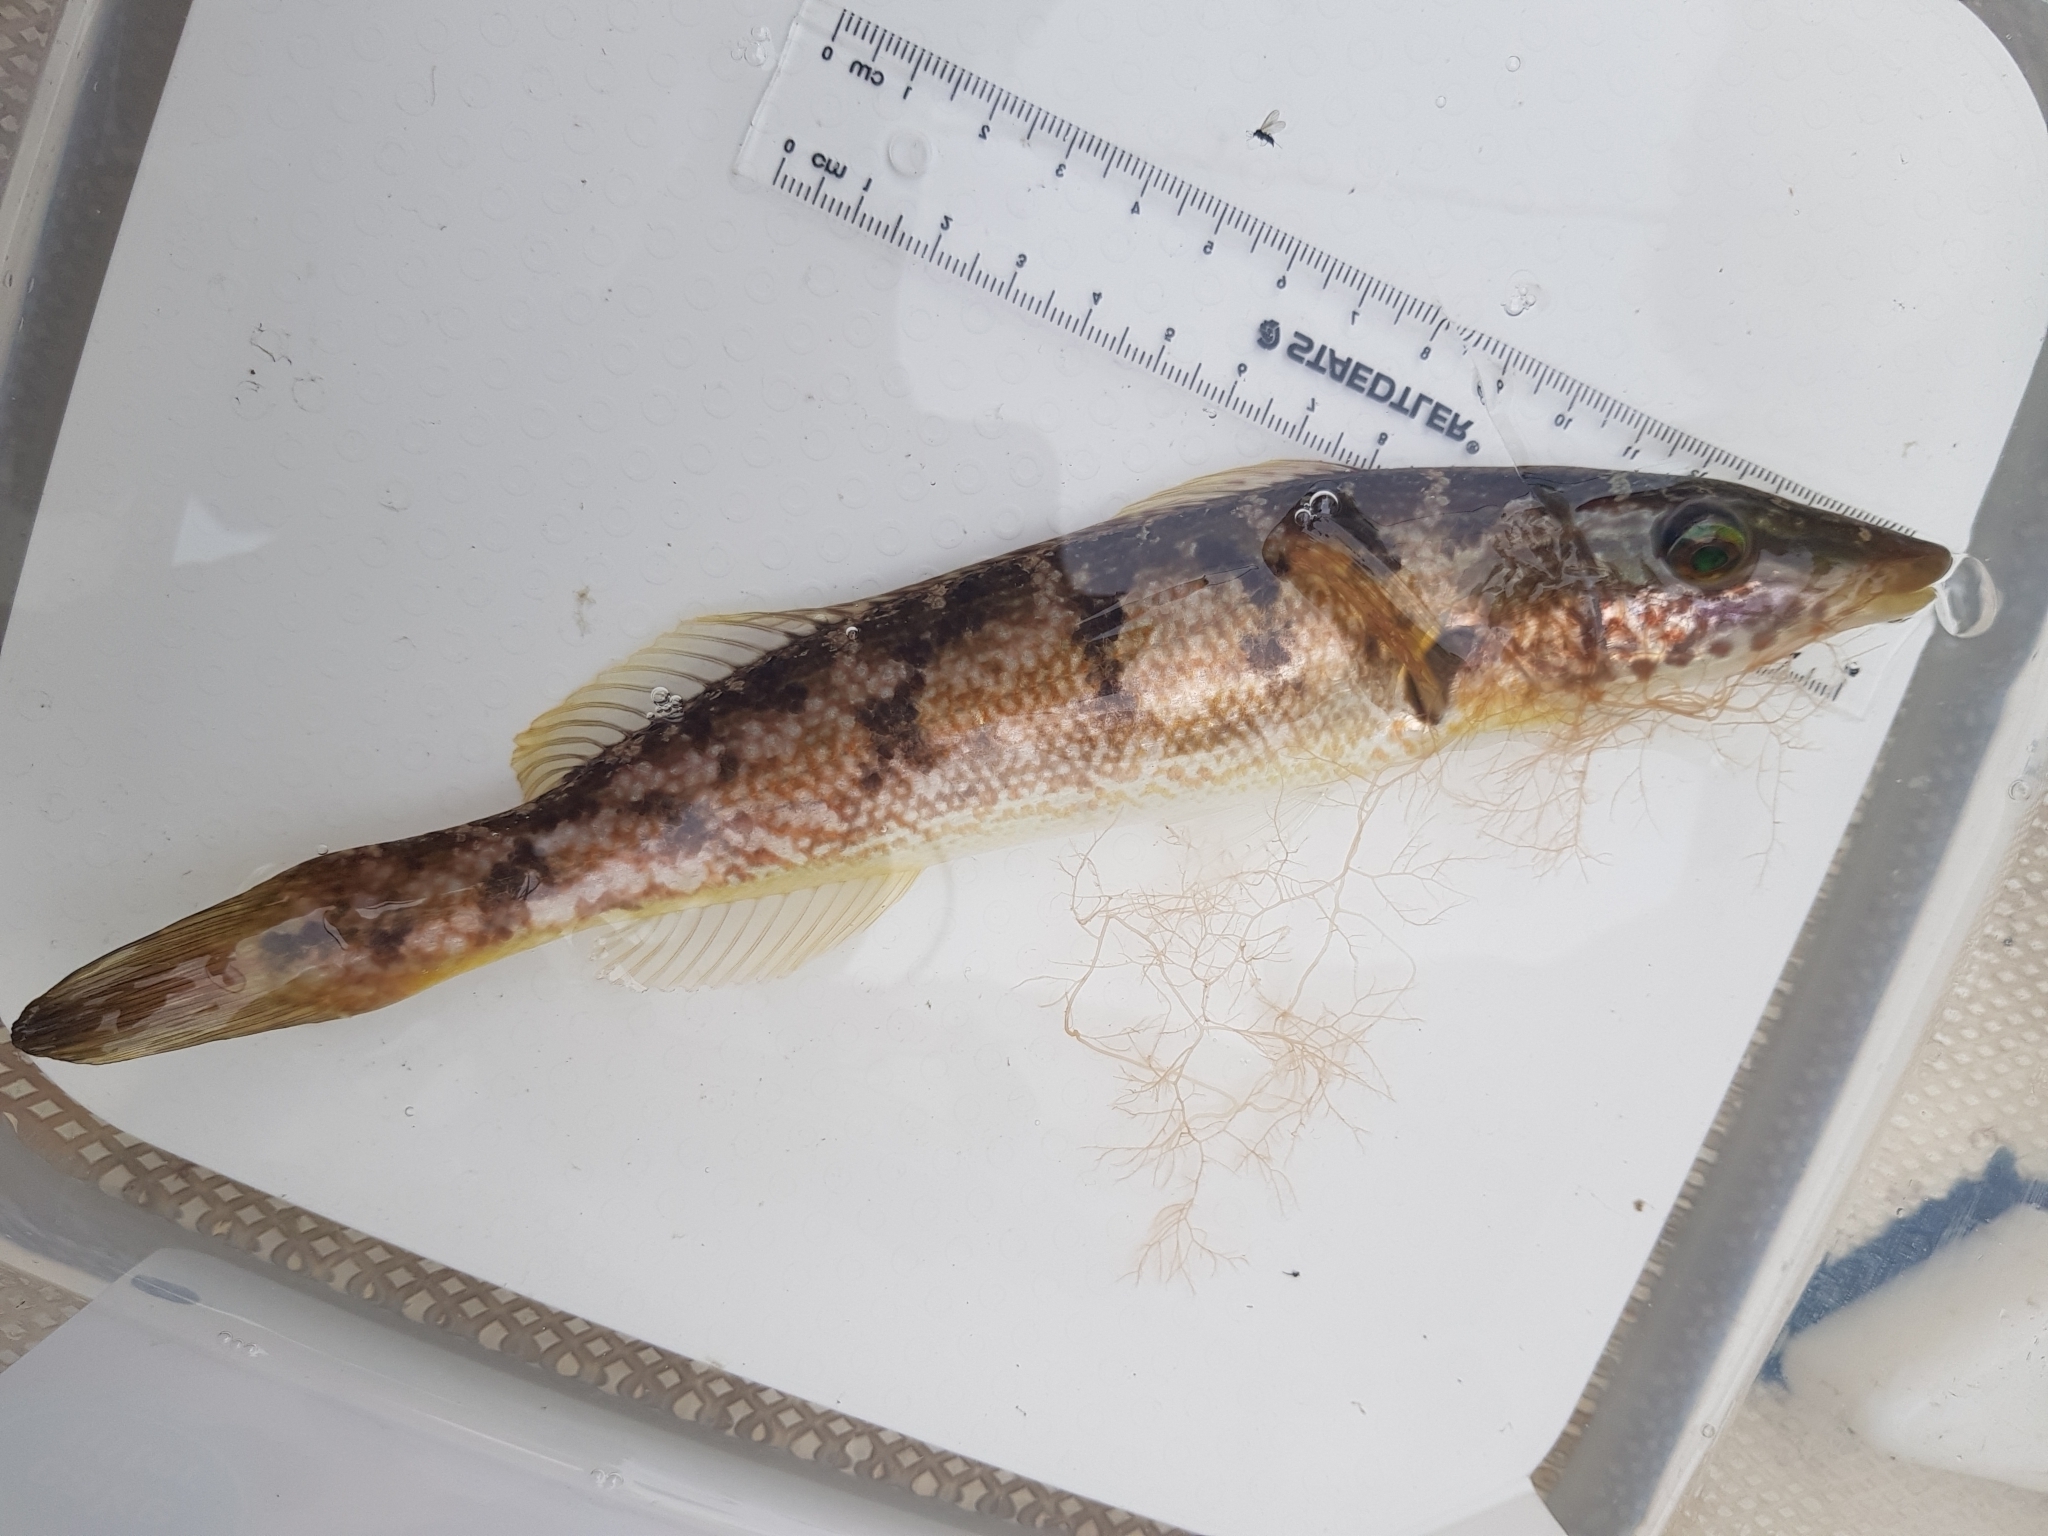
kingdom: Animalia
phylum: Chordata
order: Perciformes
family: Odacidae
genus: Haletta
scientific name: Haletta semifasciata
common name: Blue rock whiting
